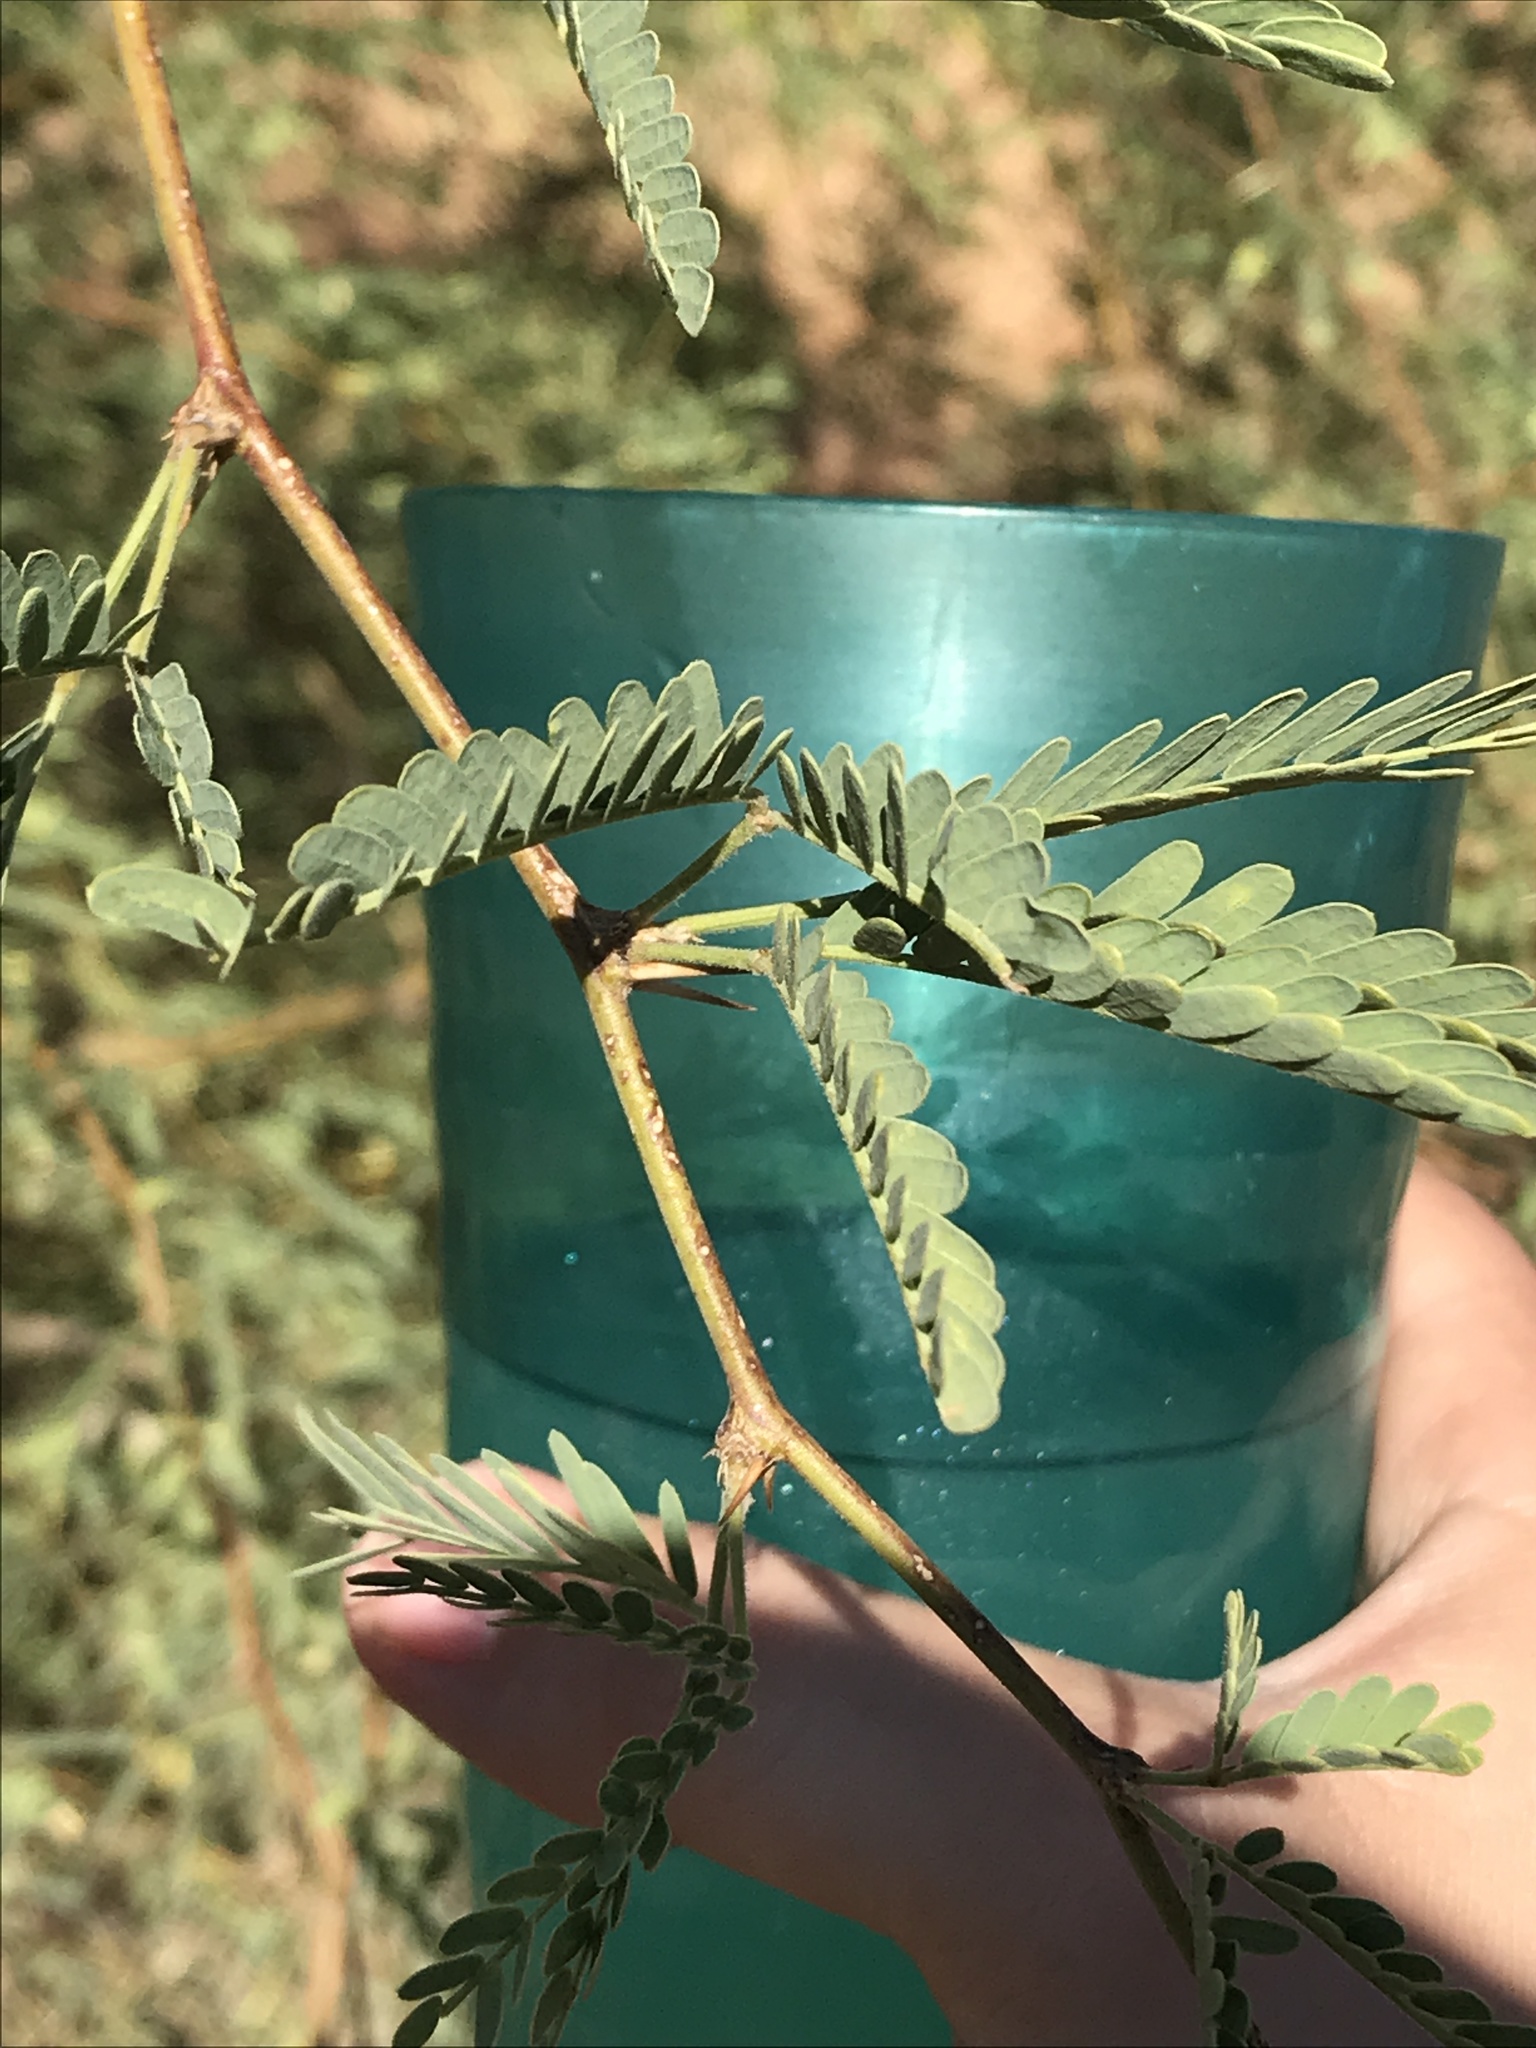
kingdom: Plantae
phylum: Tracheophyta
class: Magnoliopsida
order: Fabales
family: Fabaceae
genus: Prosopis
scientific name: Prosopis velutina
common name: Velvet mesquite
